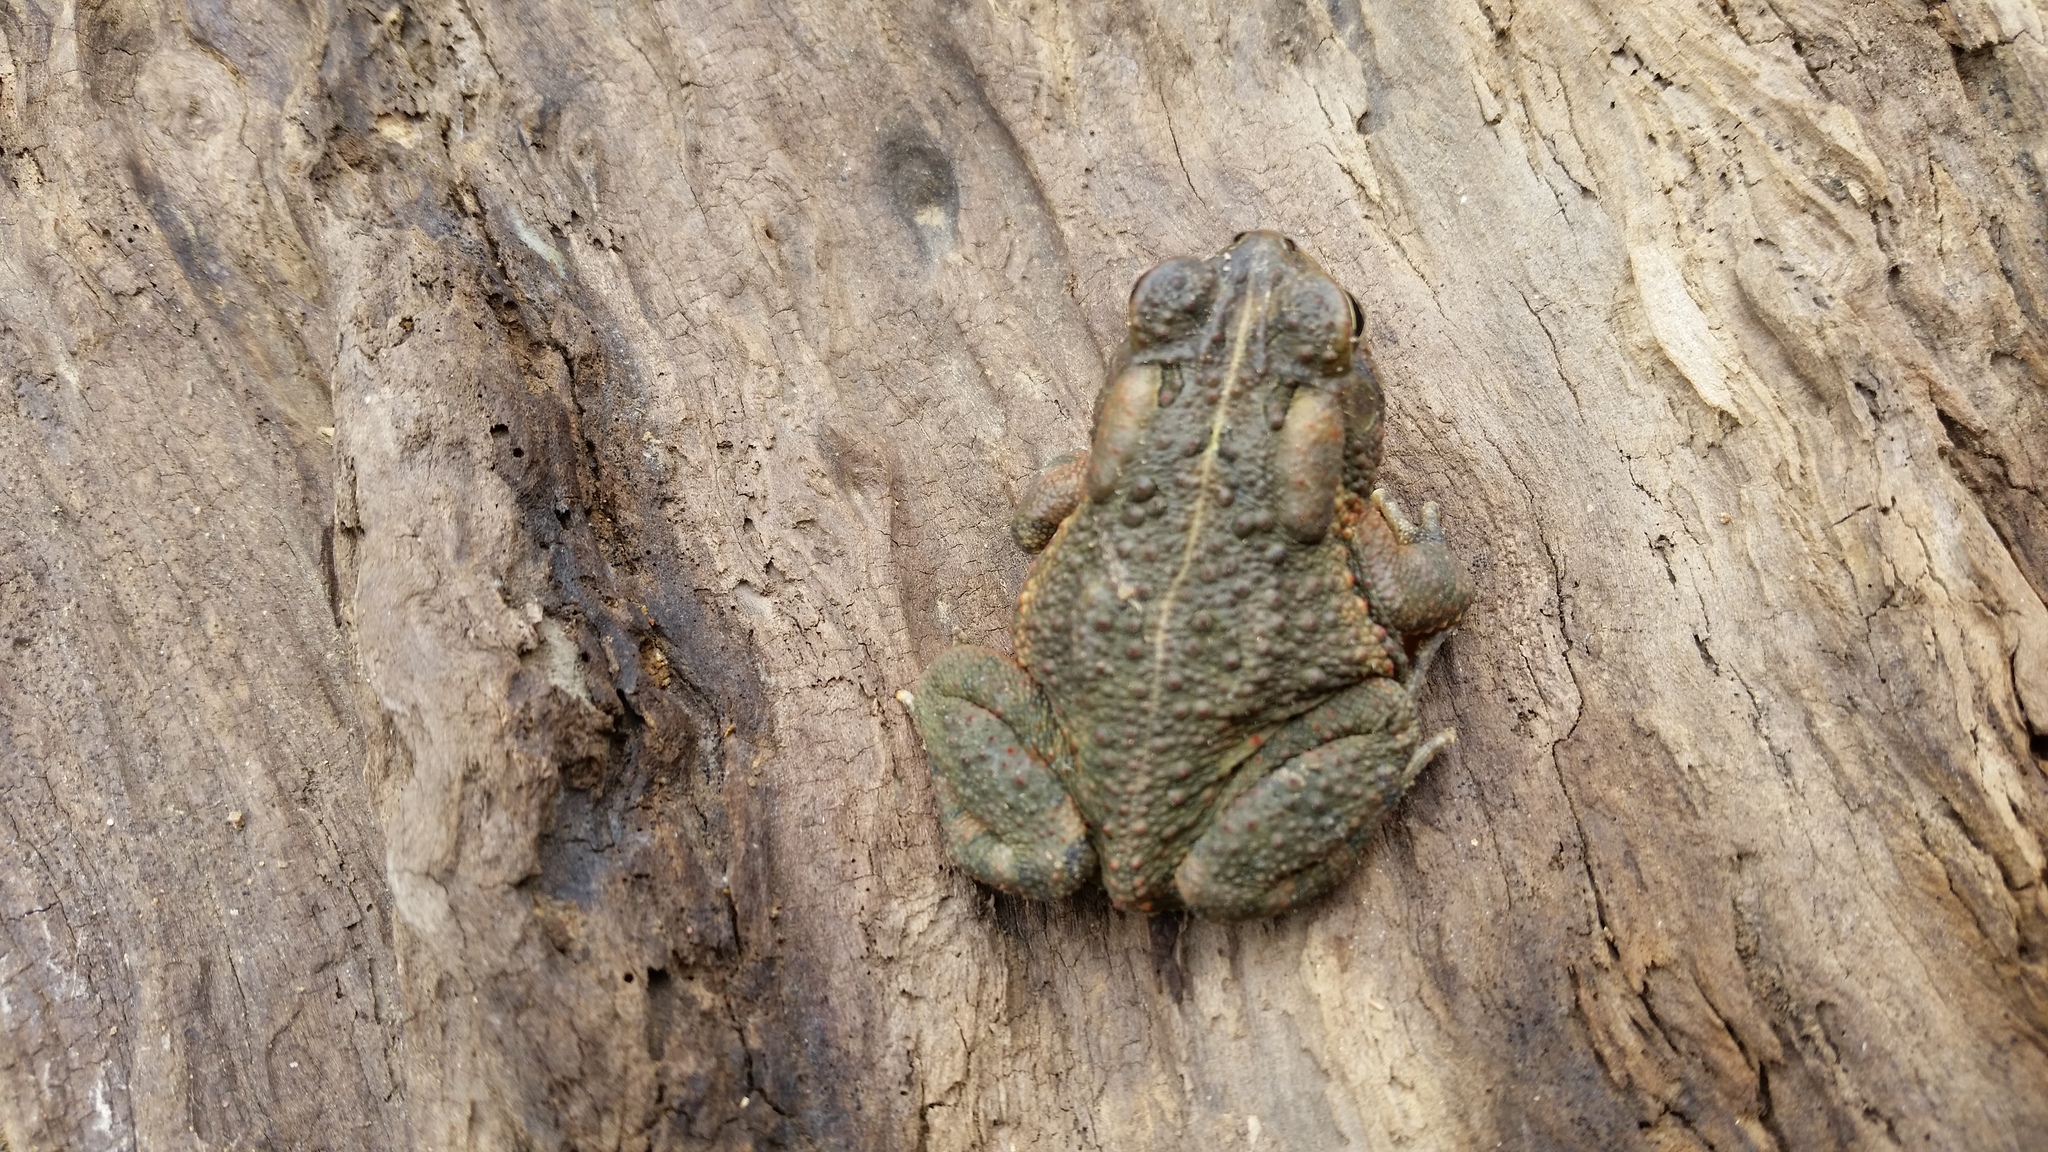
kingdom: Animalia
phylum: Chordata
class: Amphibia
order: Anura
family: Bufonidae
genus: Anaxyrus
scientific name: Anaxyrus americanus
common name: American toad
